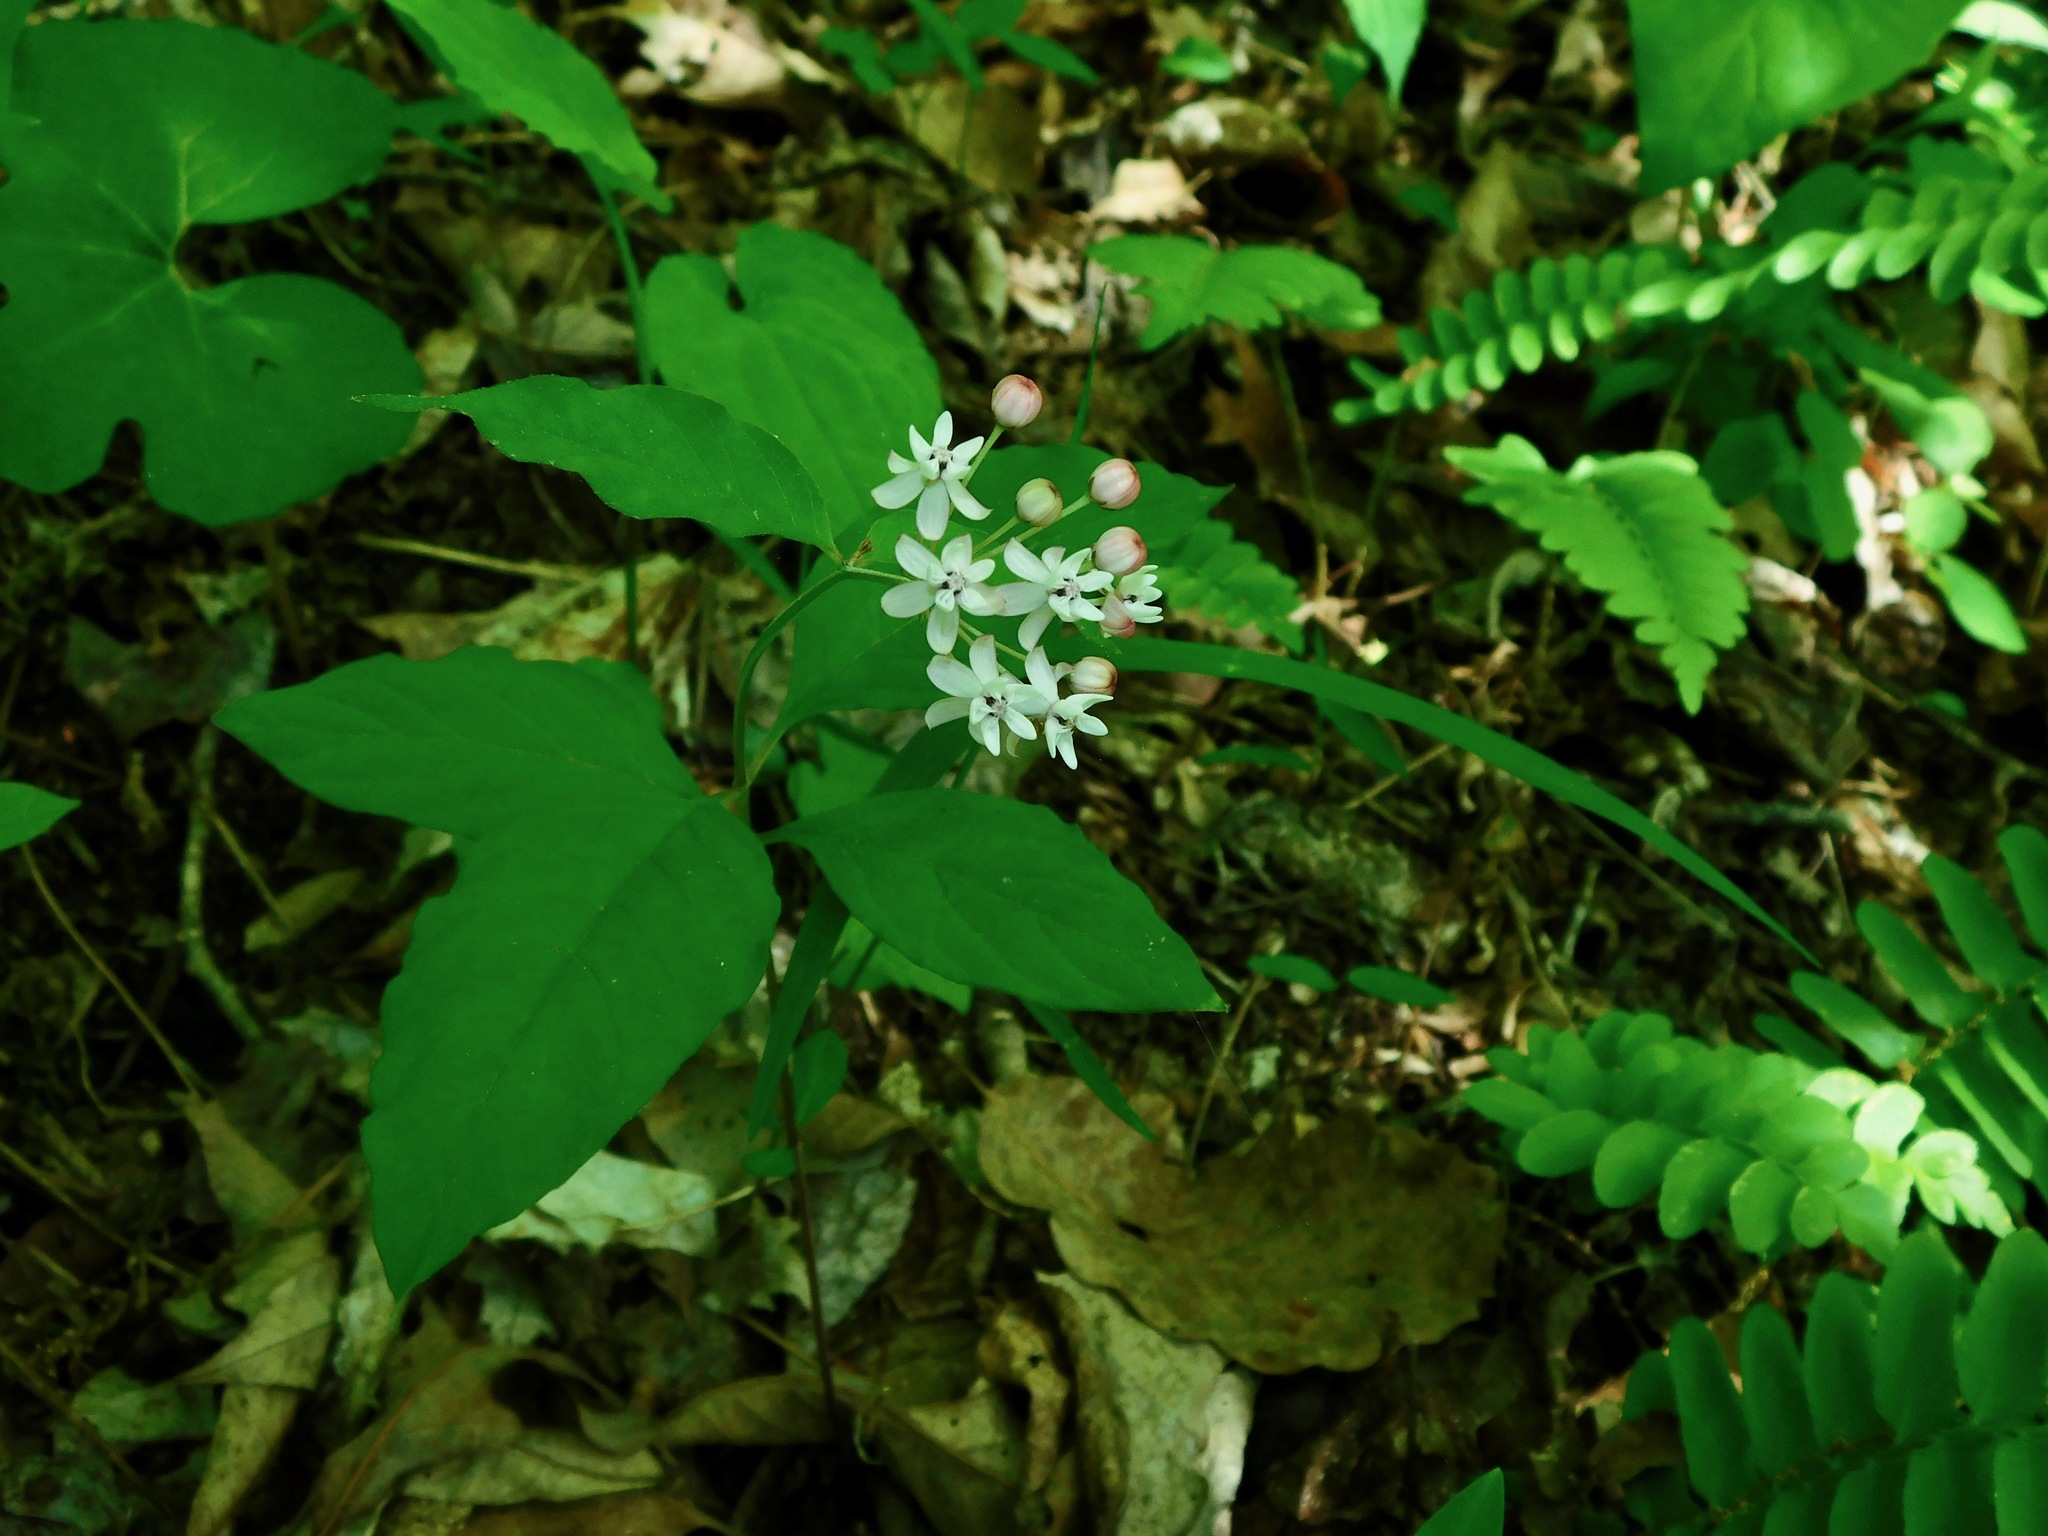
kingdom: Plantae
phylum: Tracheophyta
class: Magnoliopsida
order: Gentianales
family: Apocynaceae
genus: Asclepias
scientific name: Asclepias quadrifolia
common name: Whorled milkweed
